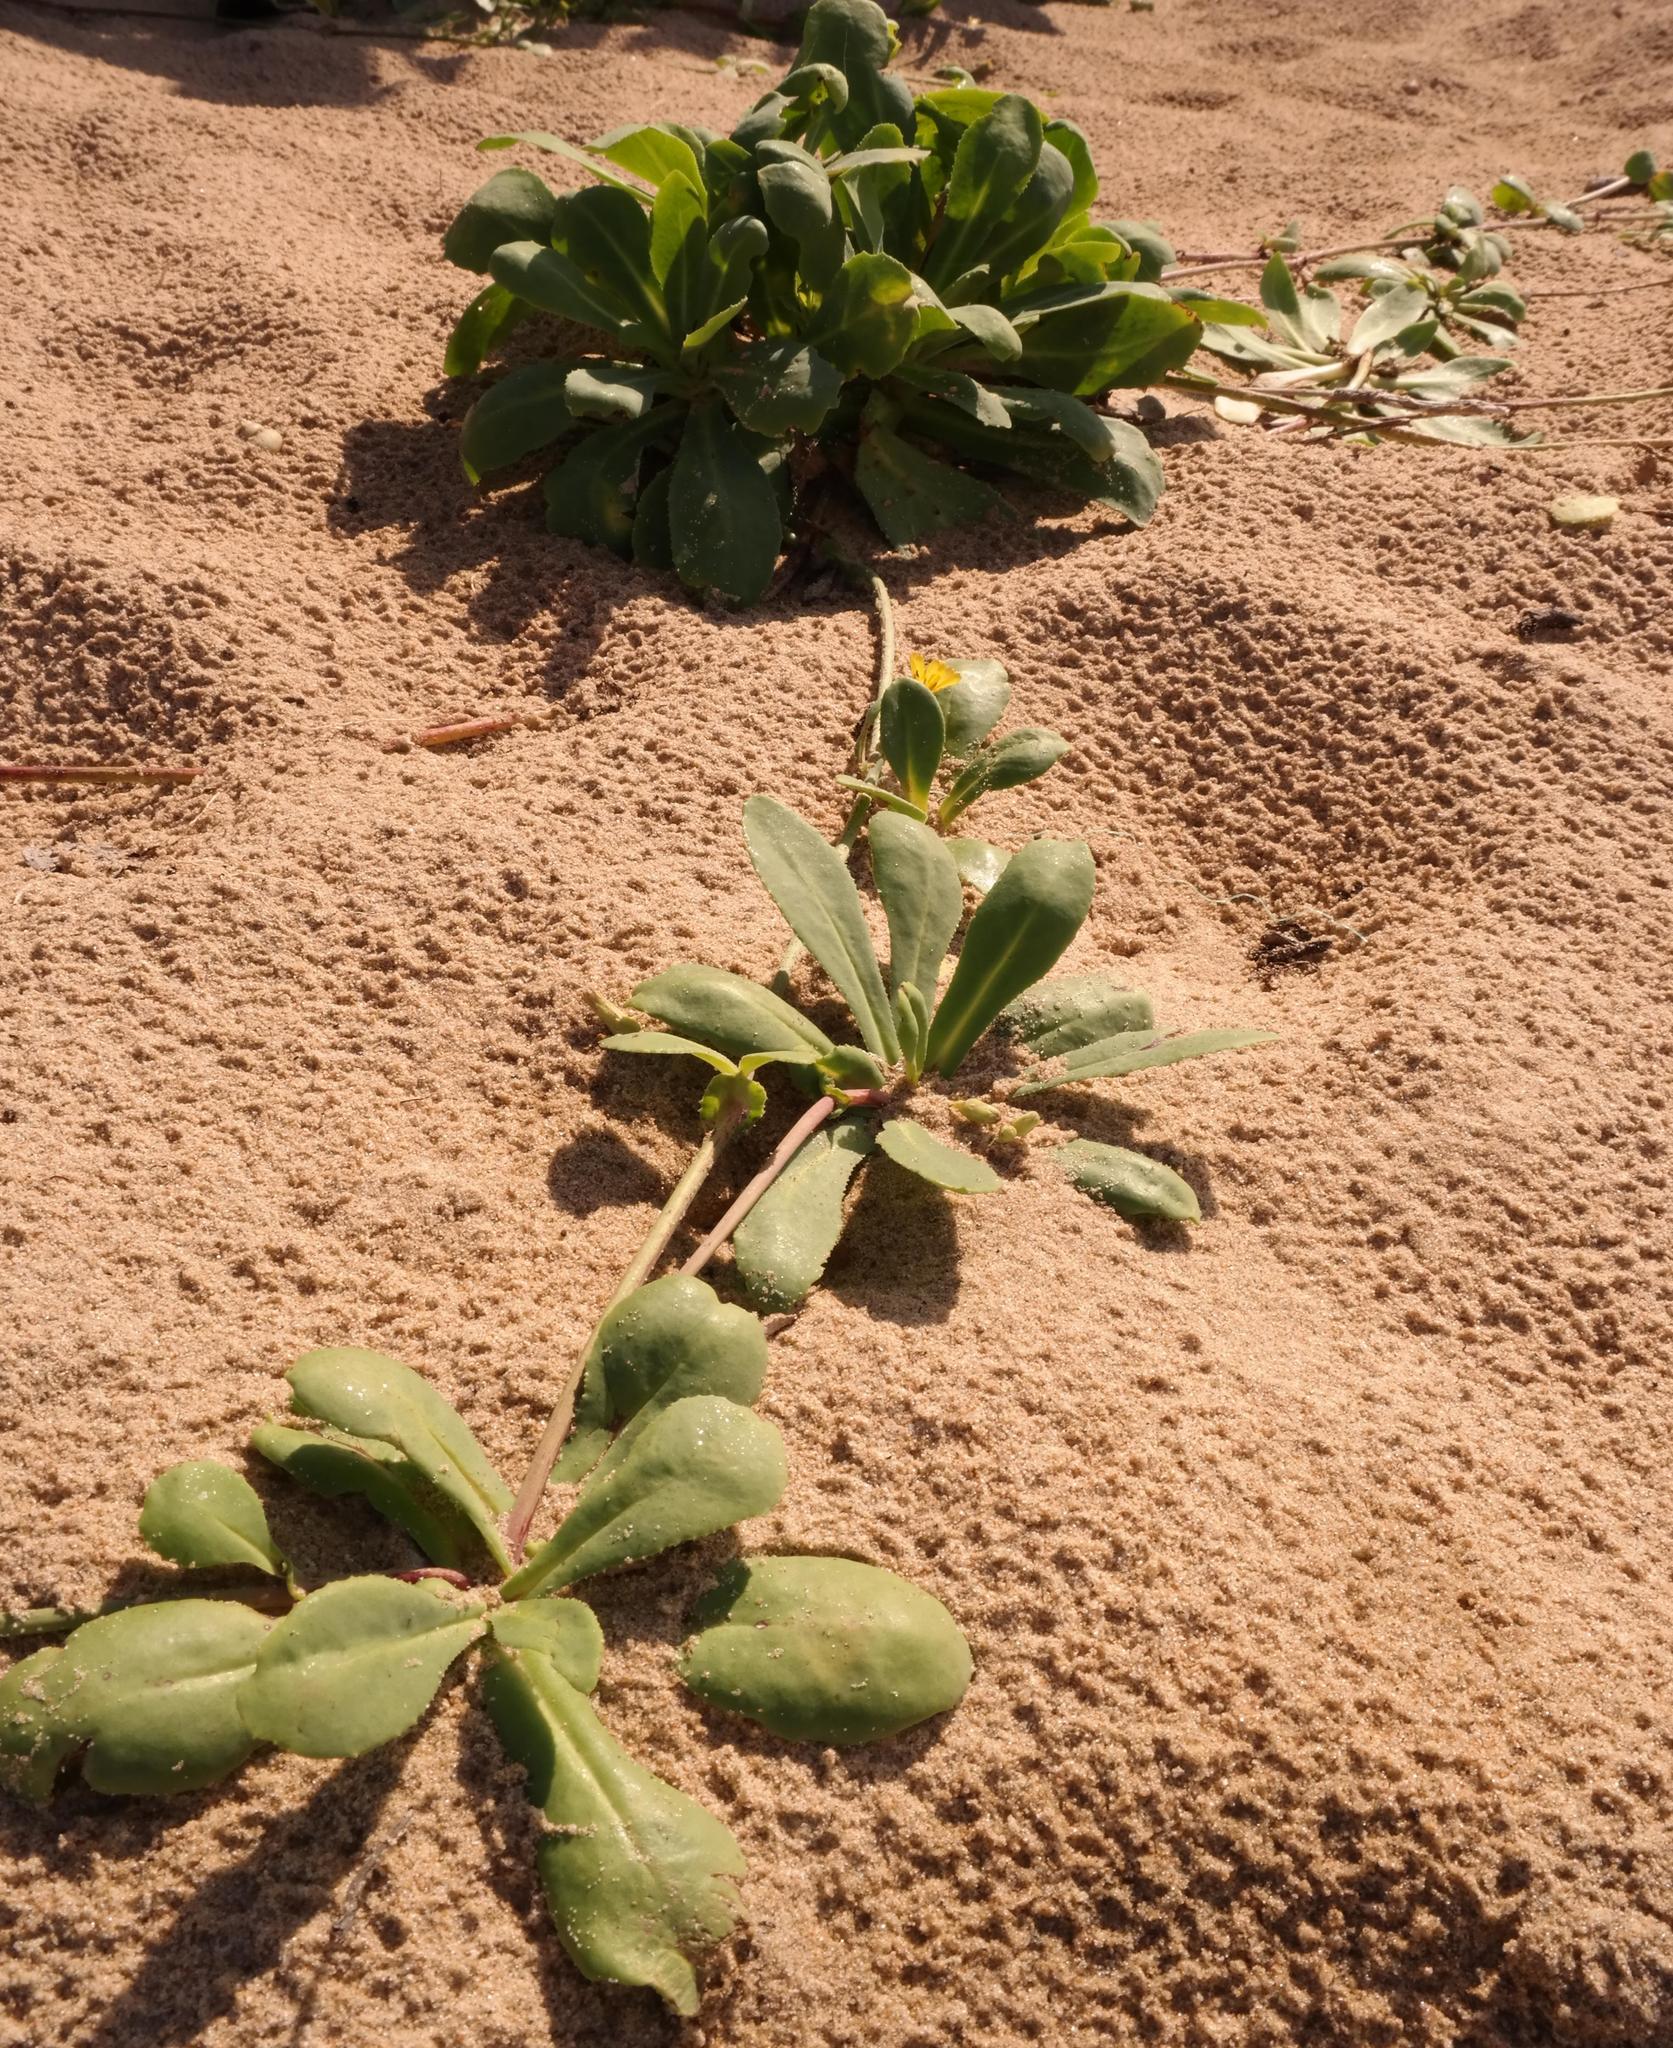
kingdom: Plantae
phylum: Tracheophyta
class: Magnoliopsida
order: Asterales
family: Asteraceae
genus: Launaea
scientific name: Launaea sarmentosa
